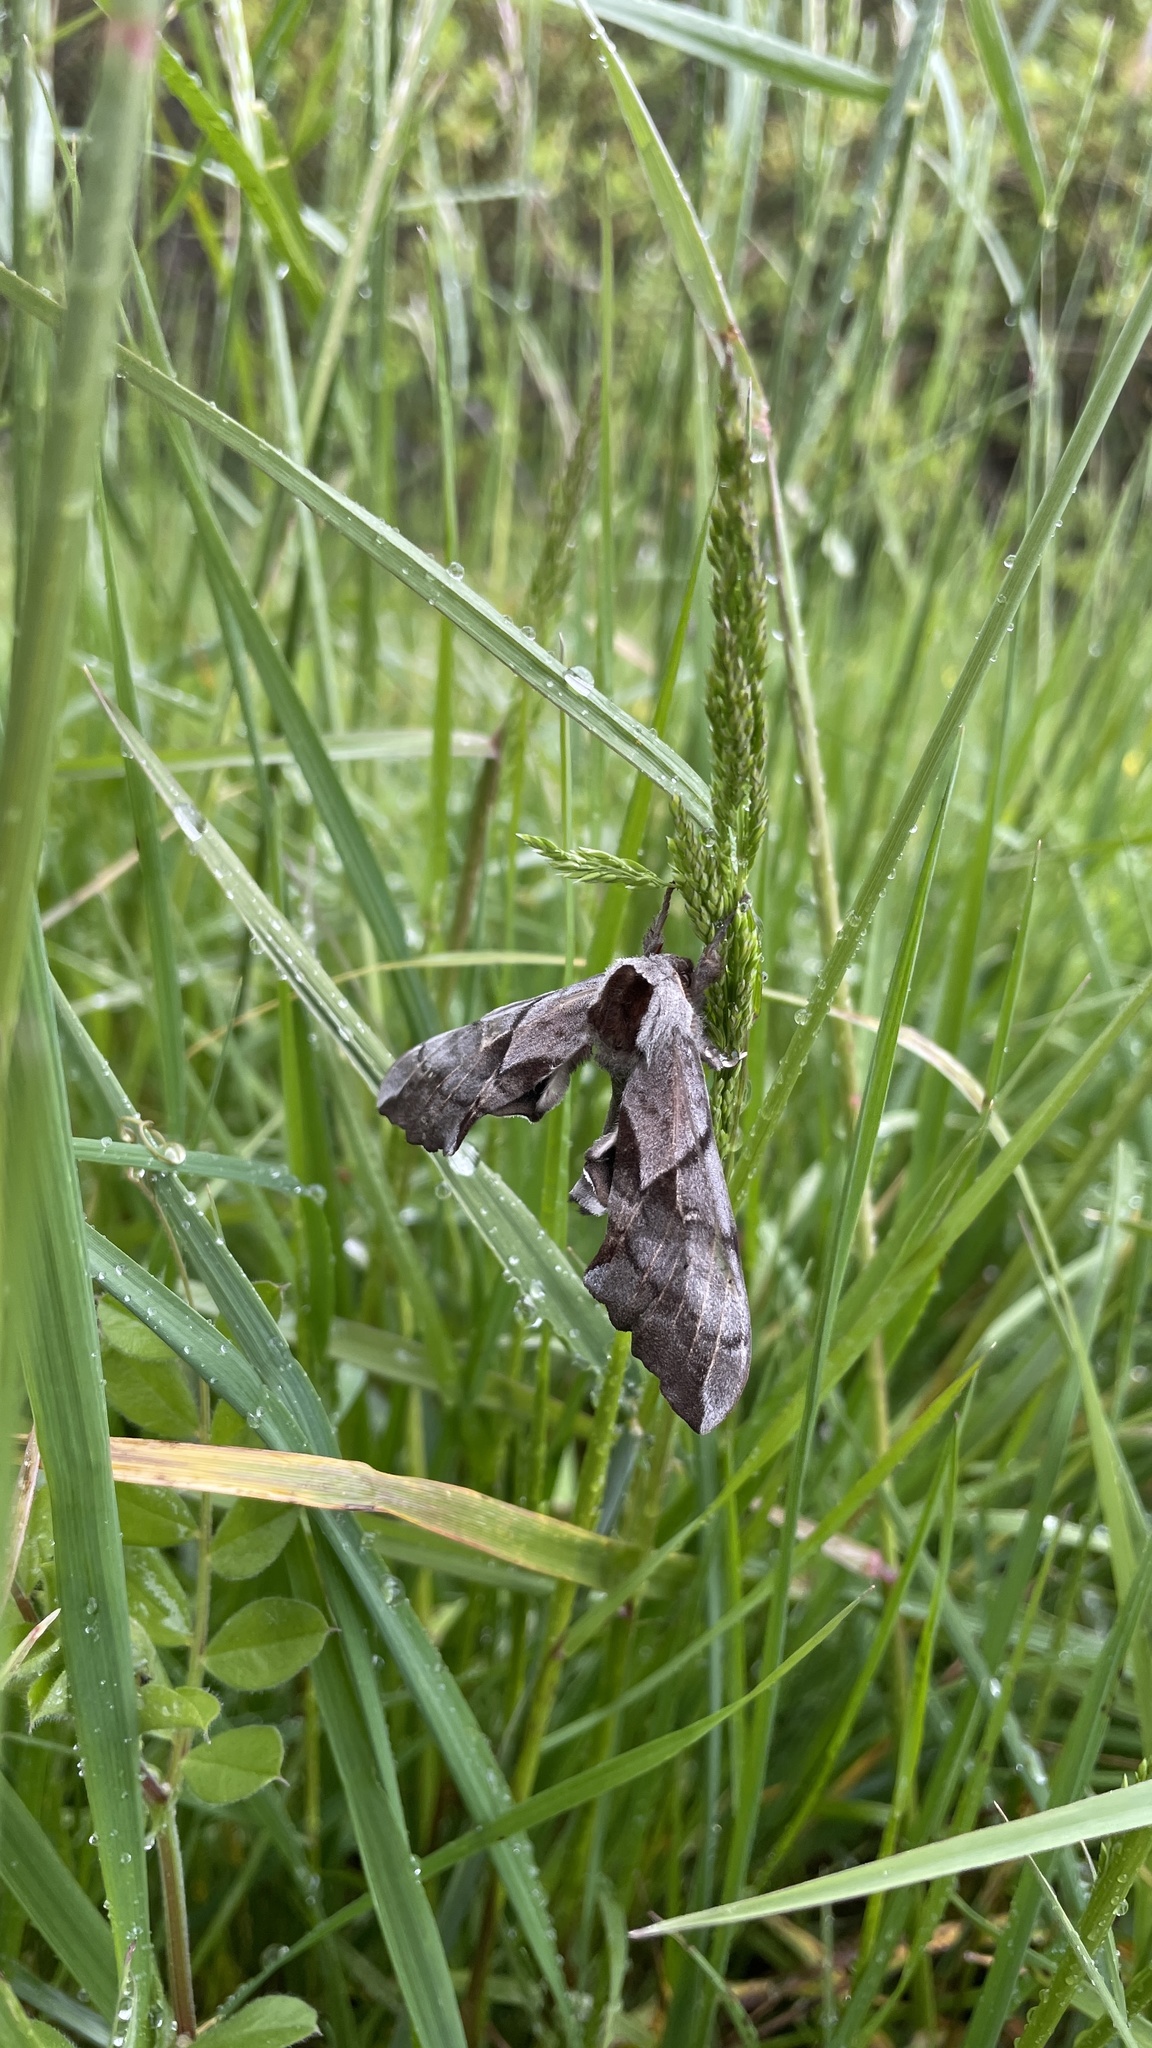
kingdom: Animalia
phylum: Arthropoda
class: Insecta
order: Lepidoptera
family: Sphingidae
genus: Smerinthus
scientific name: Smerinthus cerisyi
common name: Cerisy's sphinx moth
